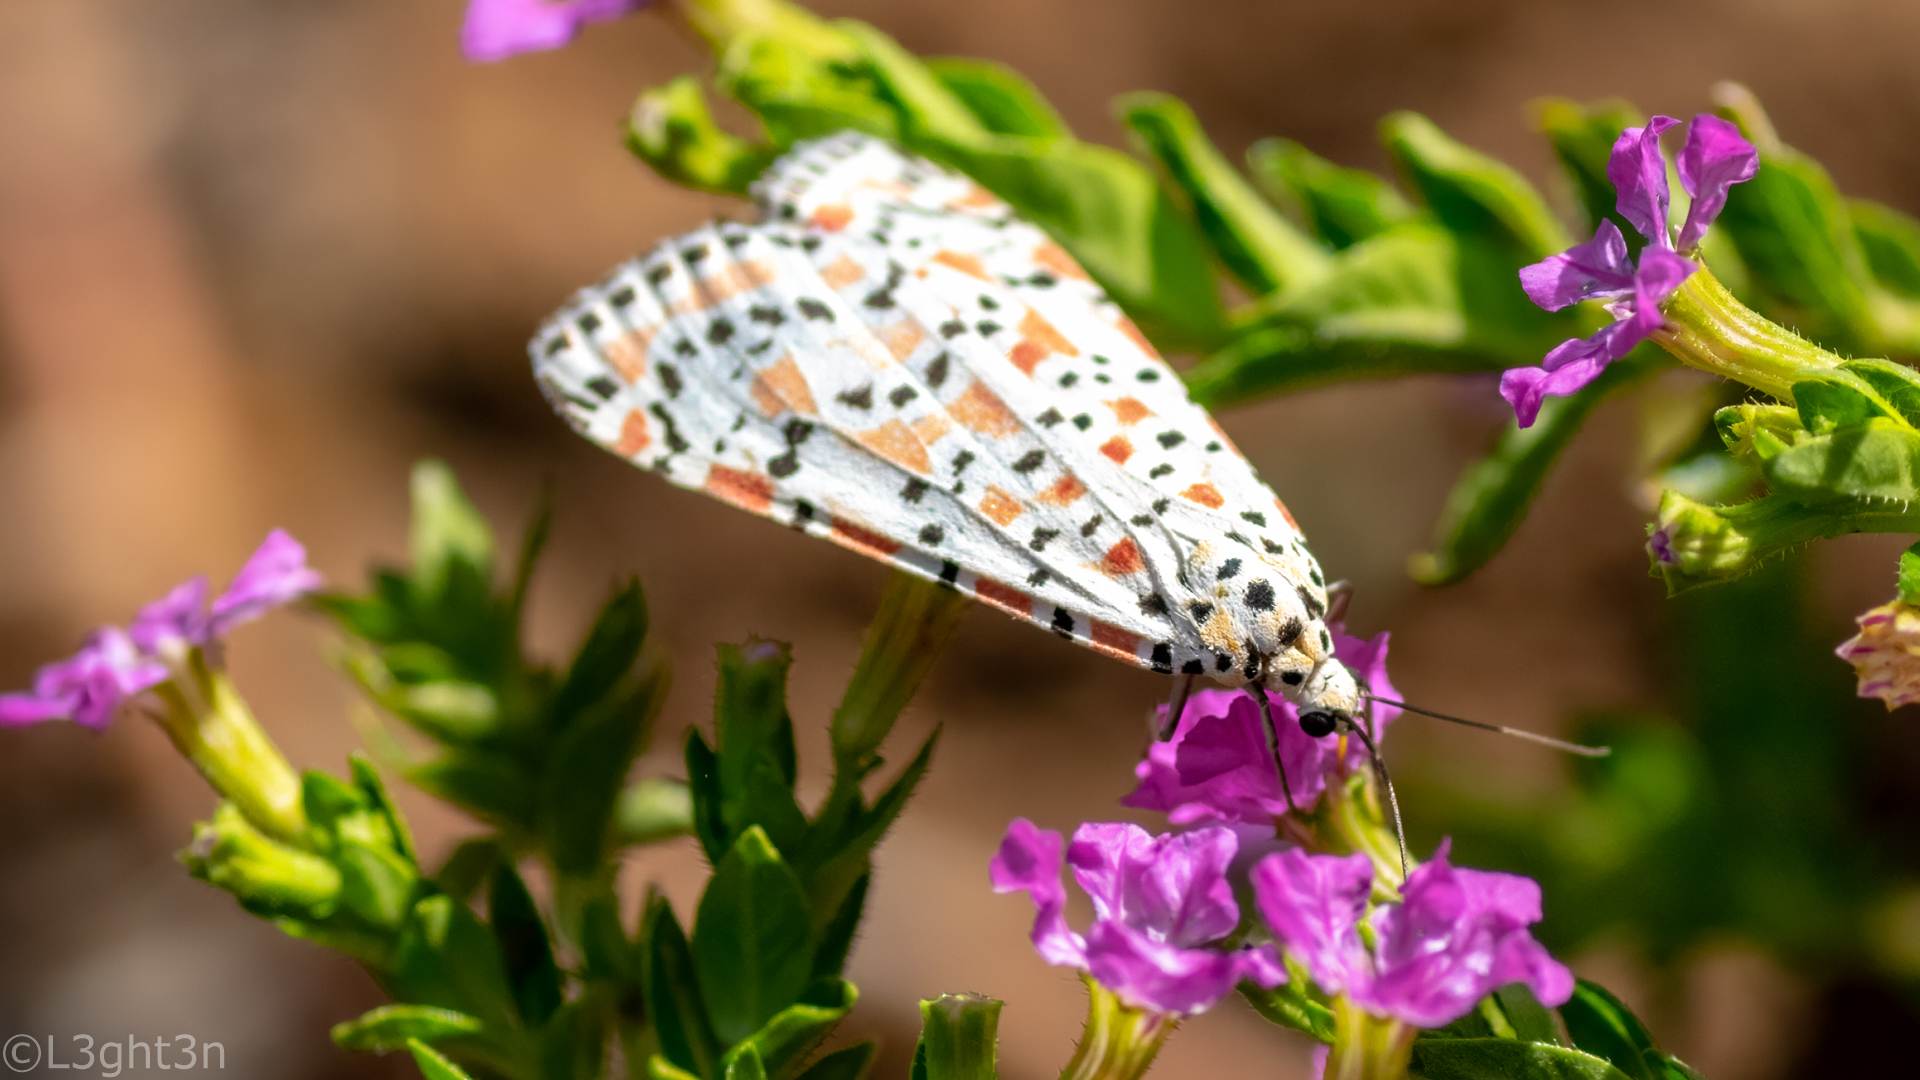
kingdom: Animalia
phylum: Arthropoda
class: Insecta
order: Lepidoptera
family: Erebidae
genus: Utetheisa
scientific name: Utetheisa pulchella
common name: Crimson speckled
